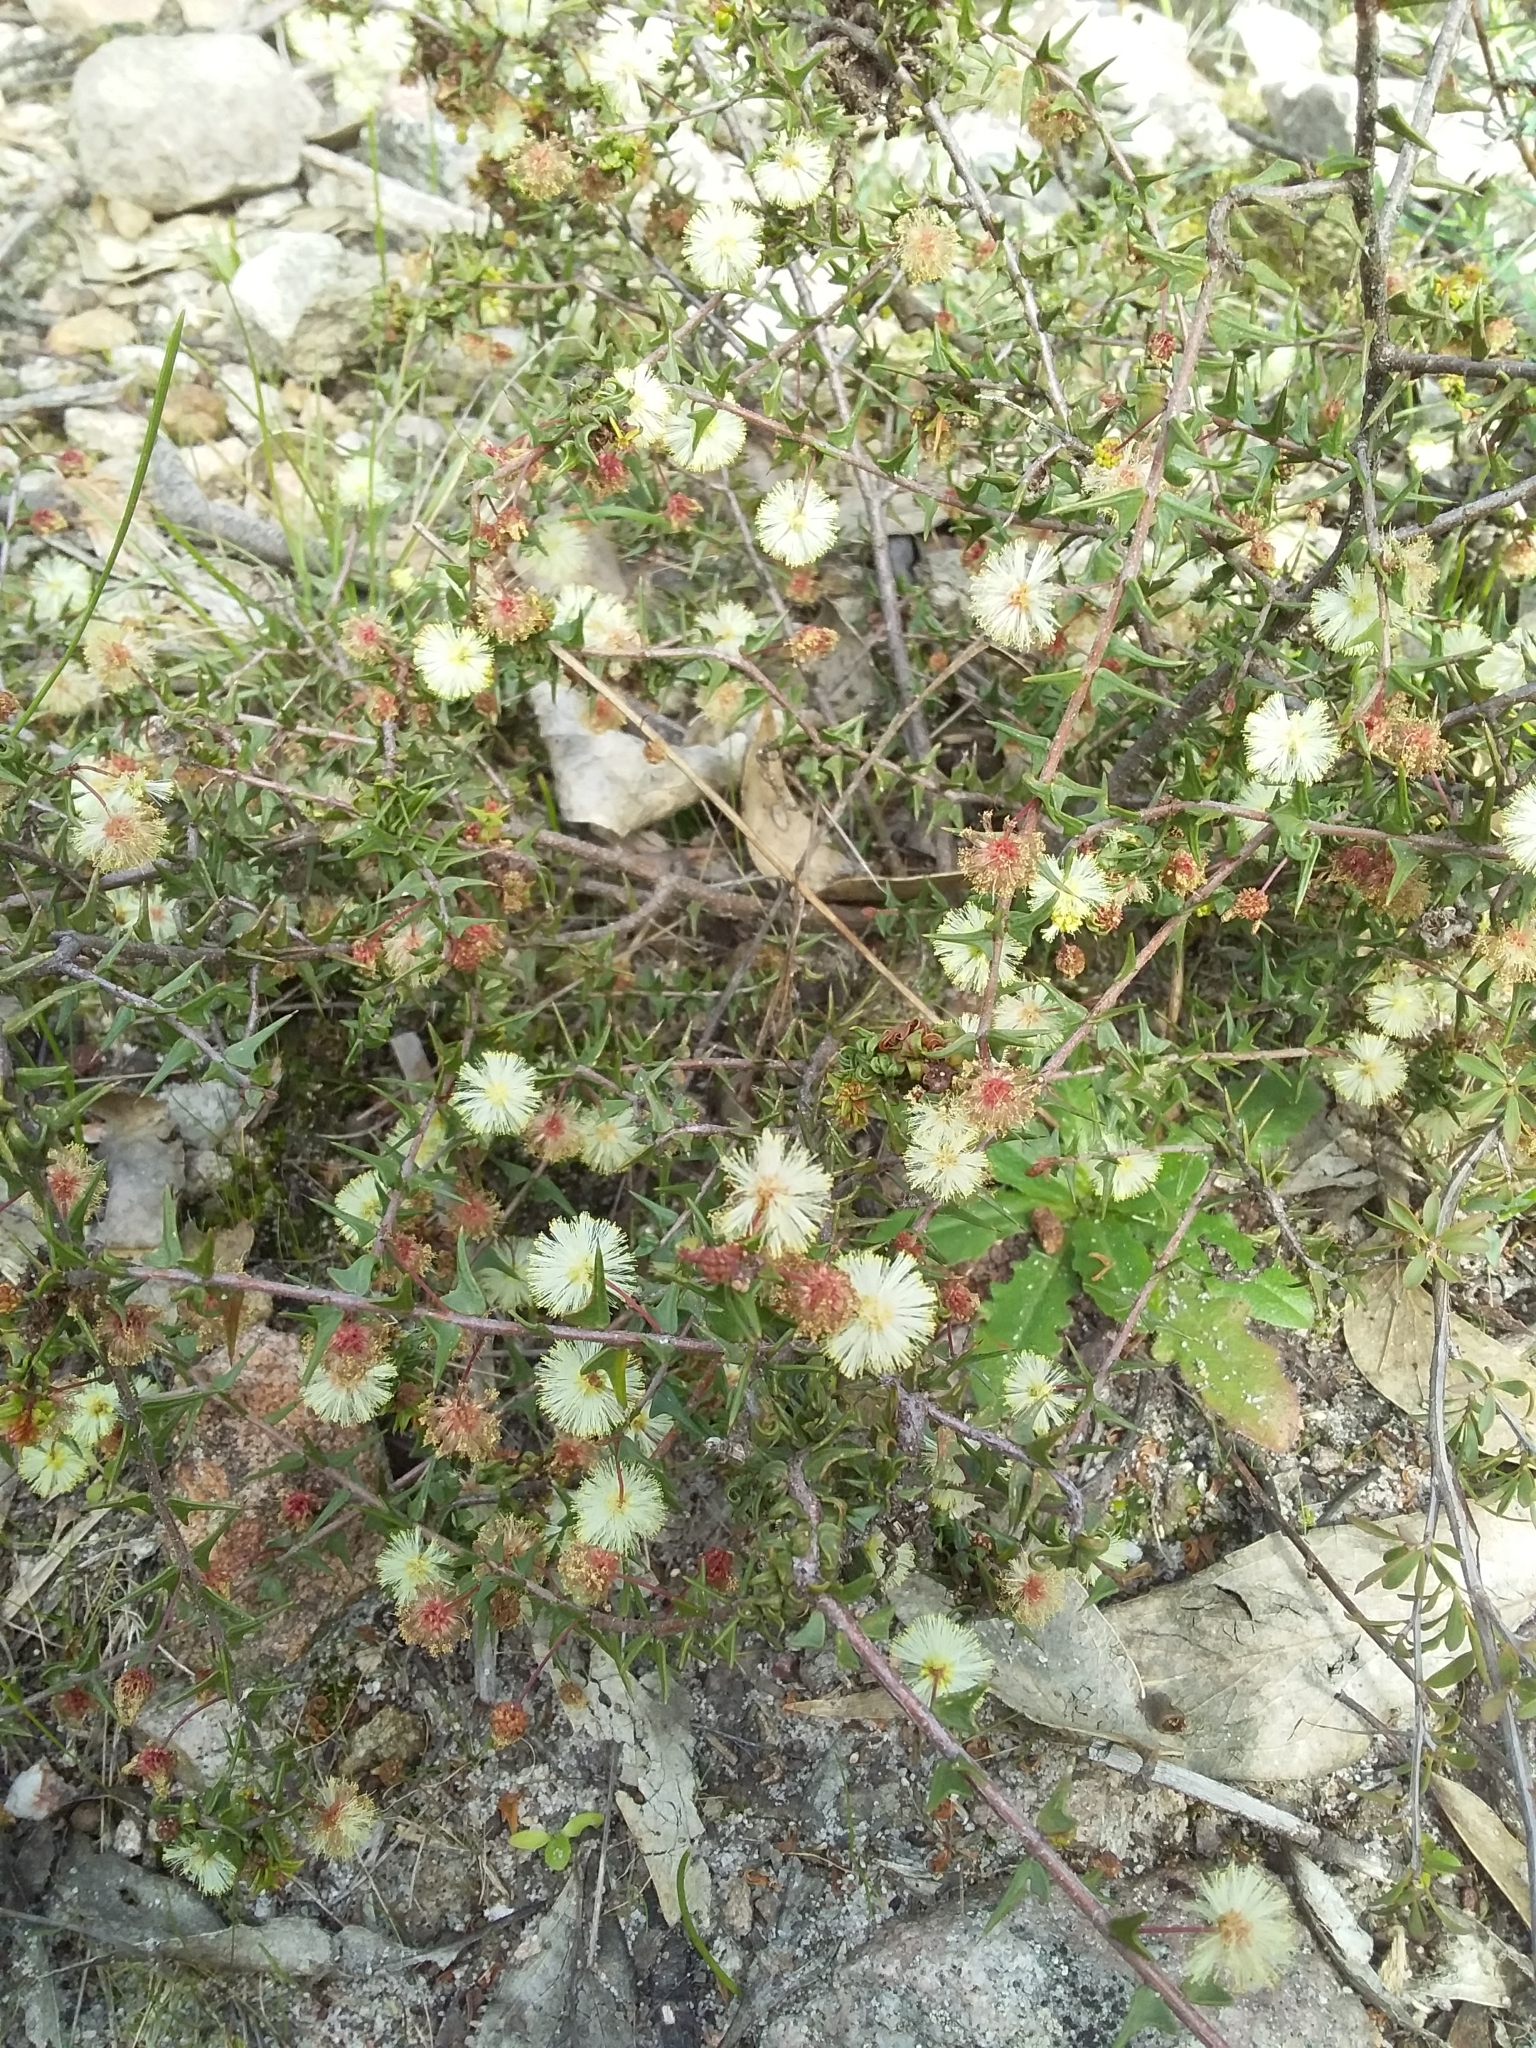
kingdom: Plantae
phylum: Tracheophyta
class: Magnoliopsida
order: Fabales
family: Fabaceae
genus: Acacia
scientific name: Acacia gunnii
